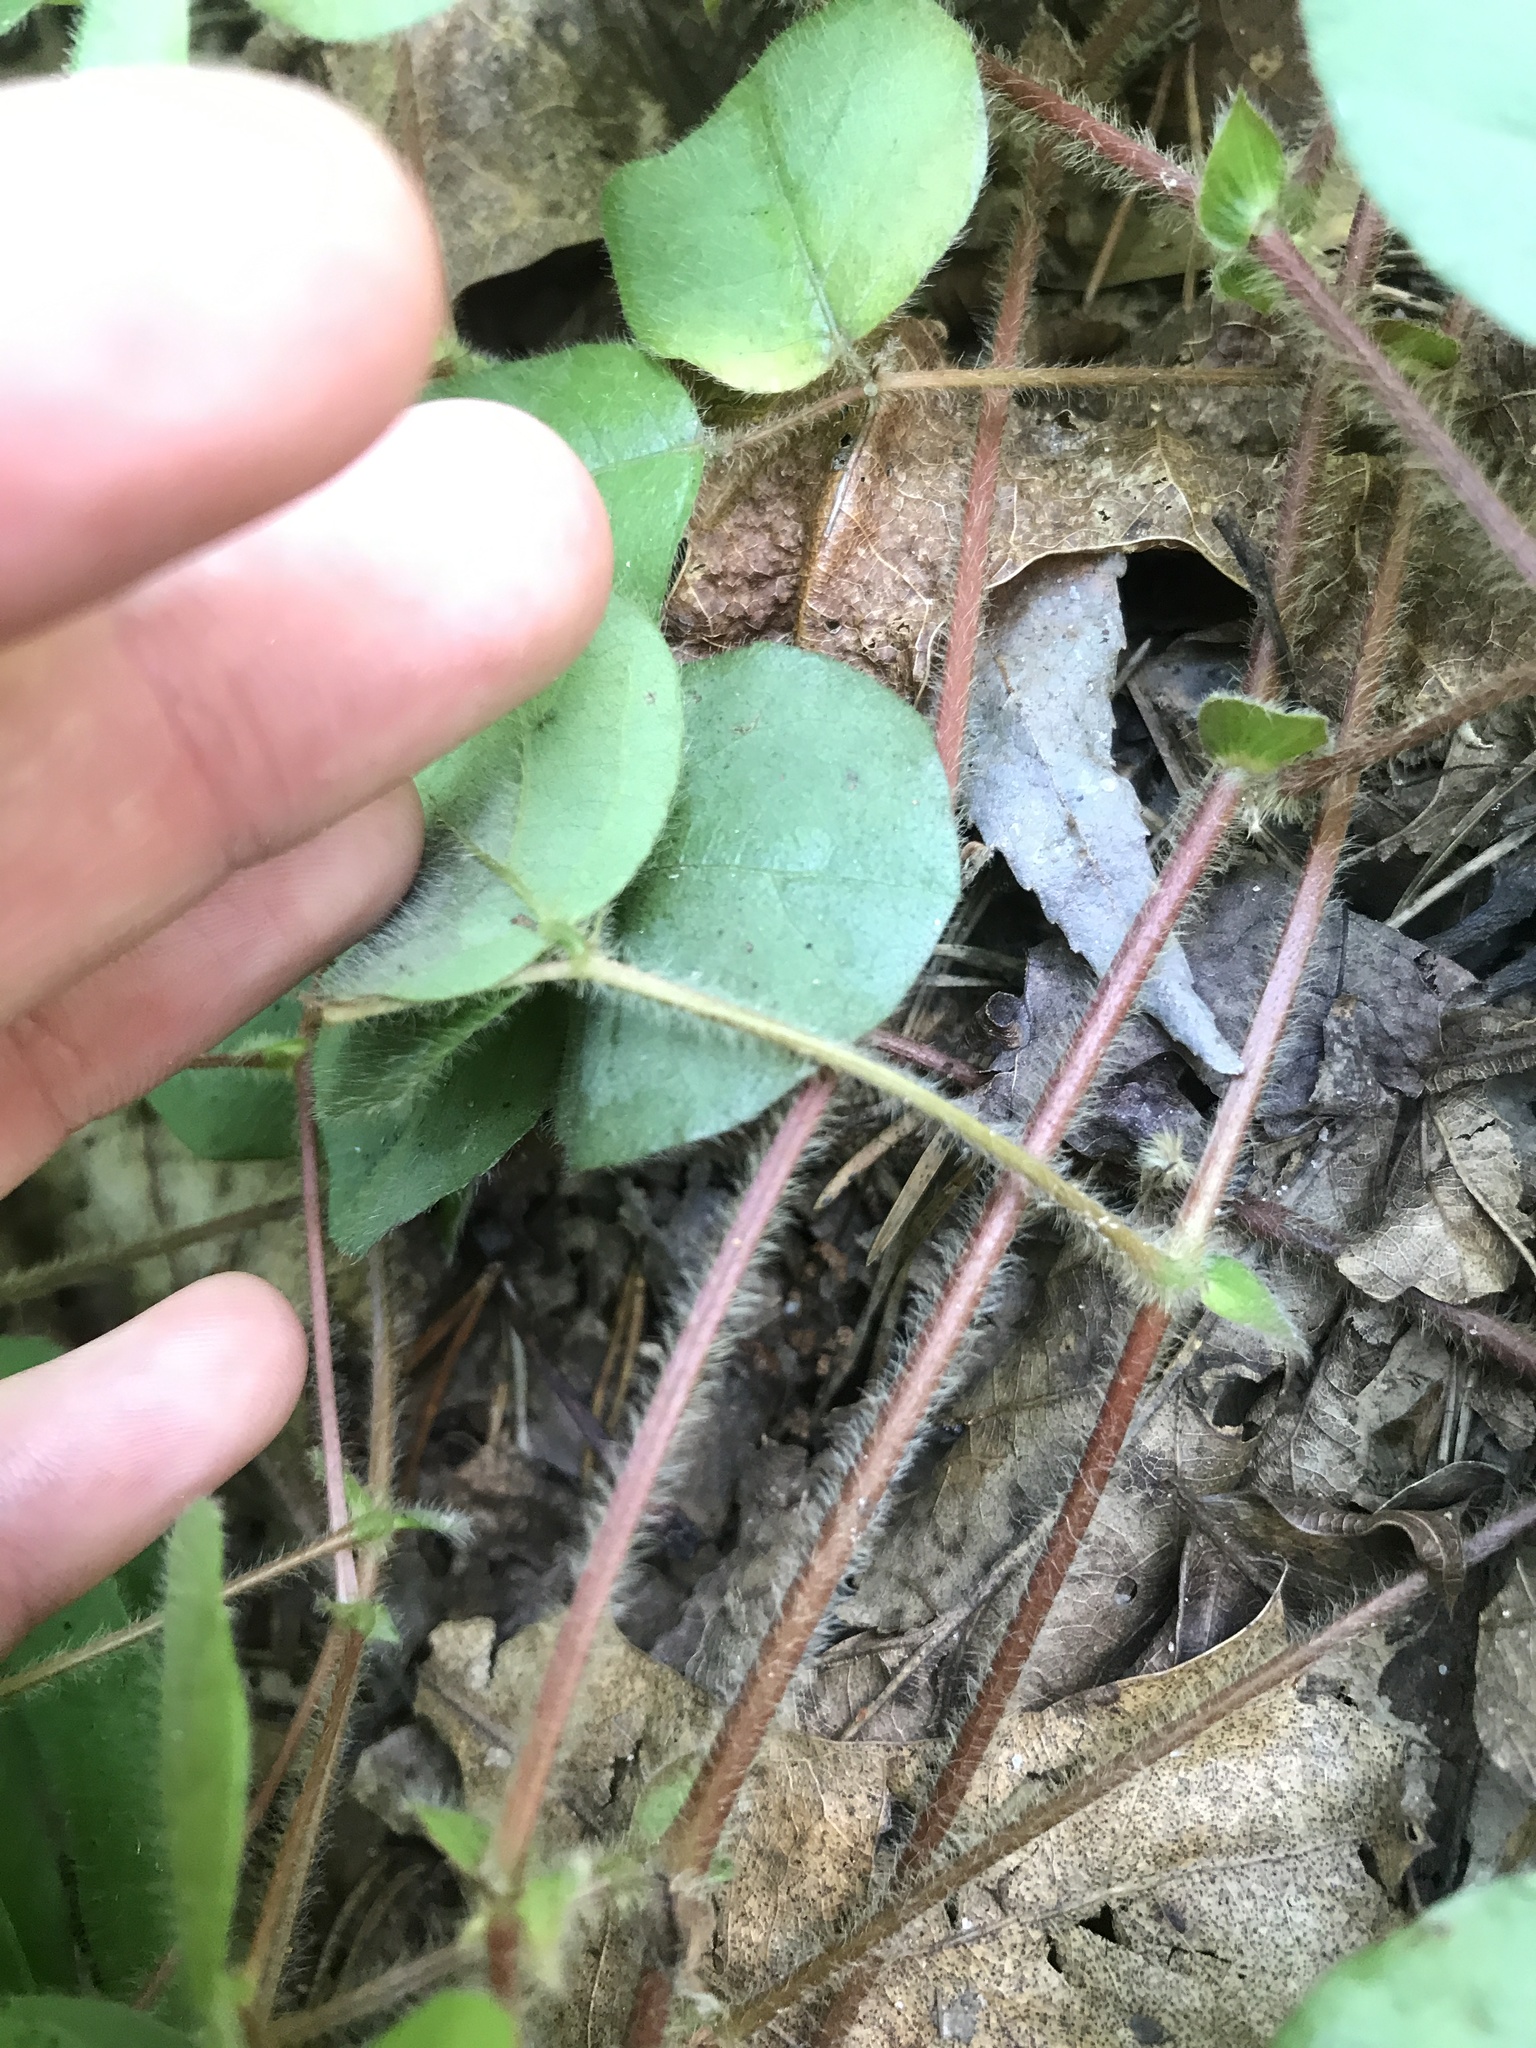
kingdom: Plantae
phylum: Tracheophyta
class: Magnoliopsida
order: Fabales
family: Fabaceae
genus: Desmodium
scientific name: Desmodium rotundifolium
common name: Dollarleaf
